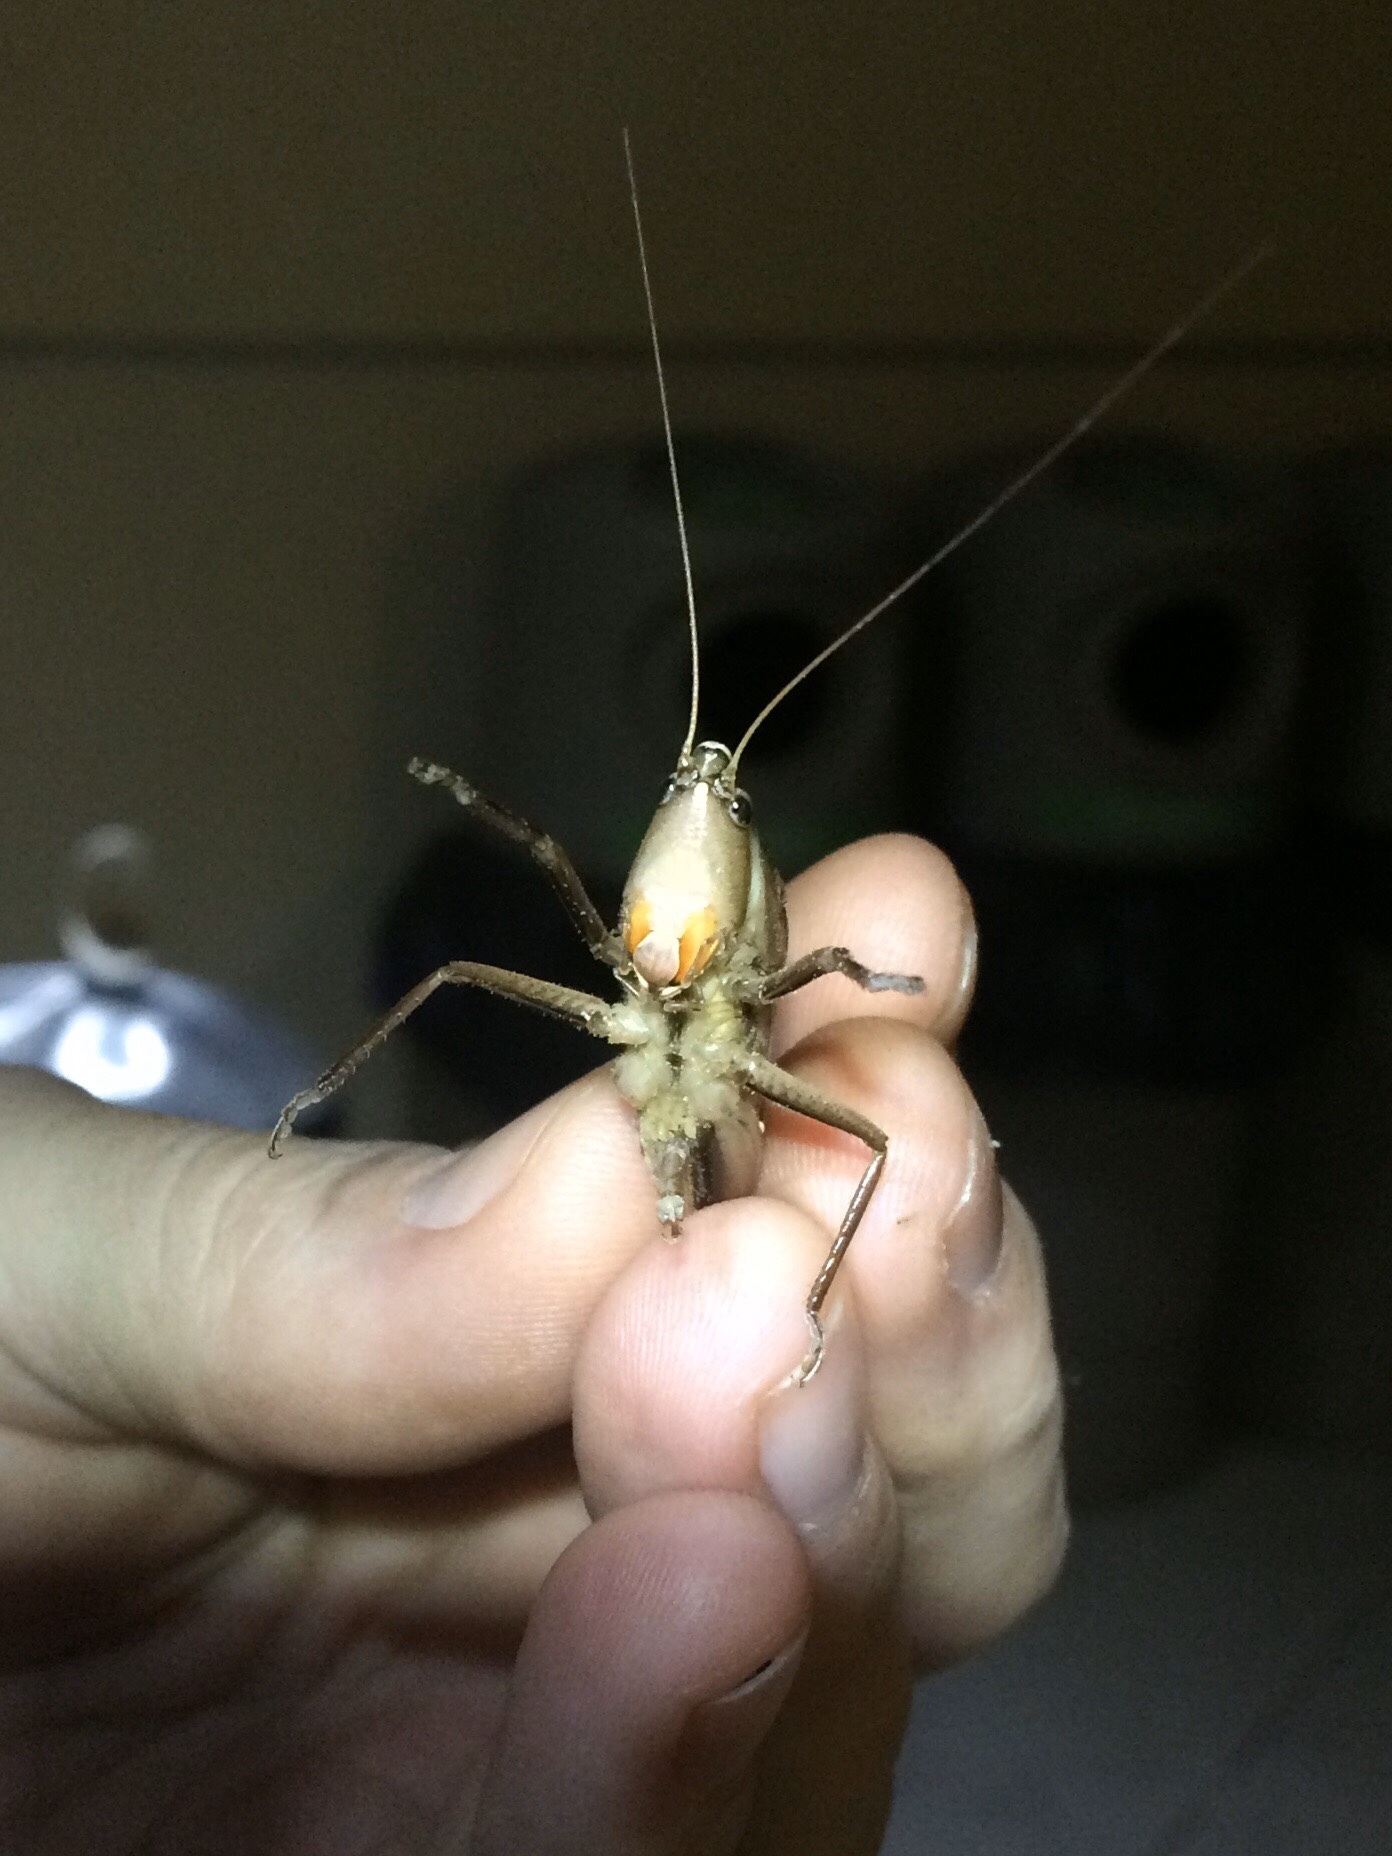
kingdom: Animalia
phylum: Arthropoda
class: Insecta
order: Orthoptera
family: Tettigoniidae
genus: Neoconocephalus
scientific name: Neoconocephalus triops
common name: Broad-tipped conehead
